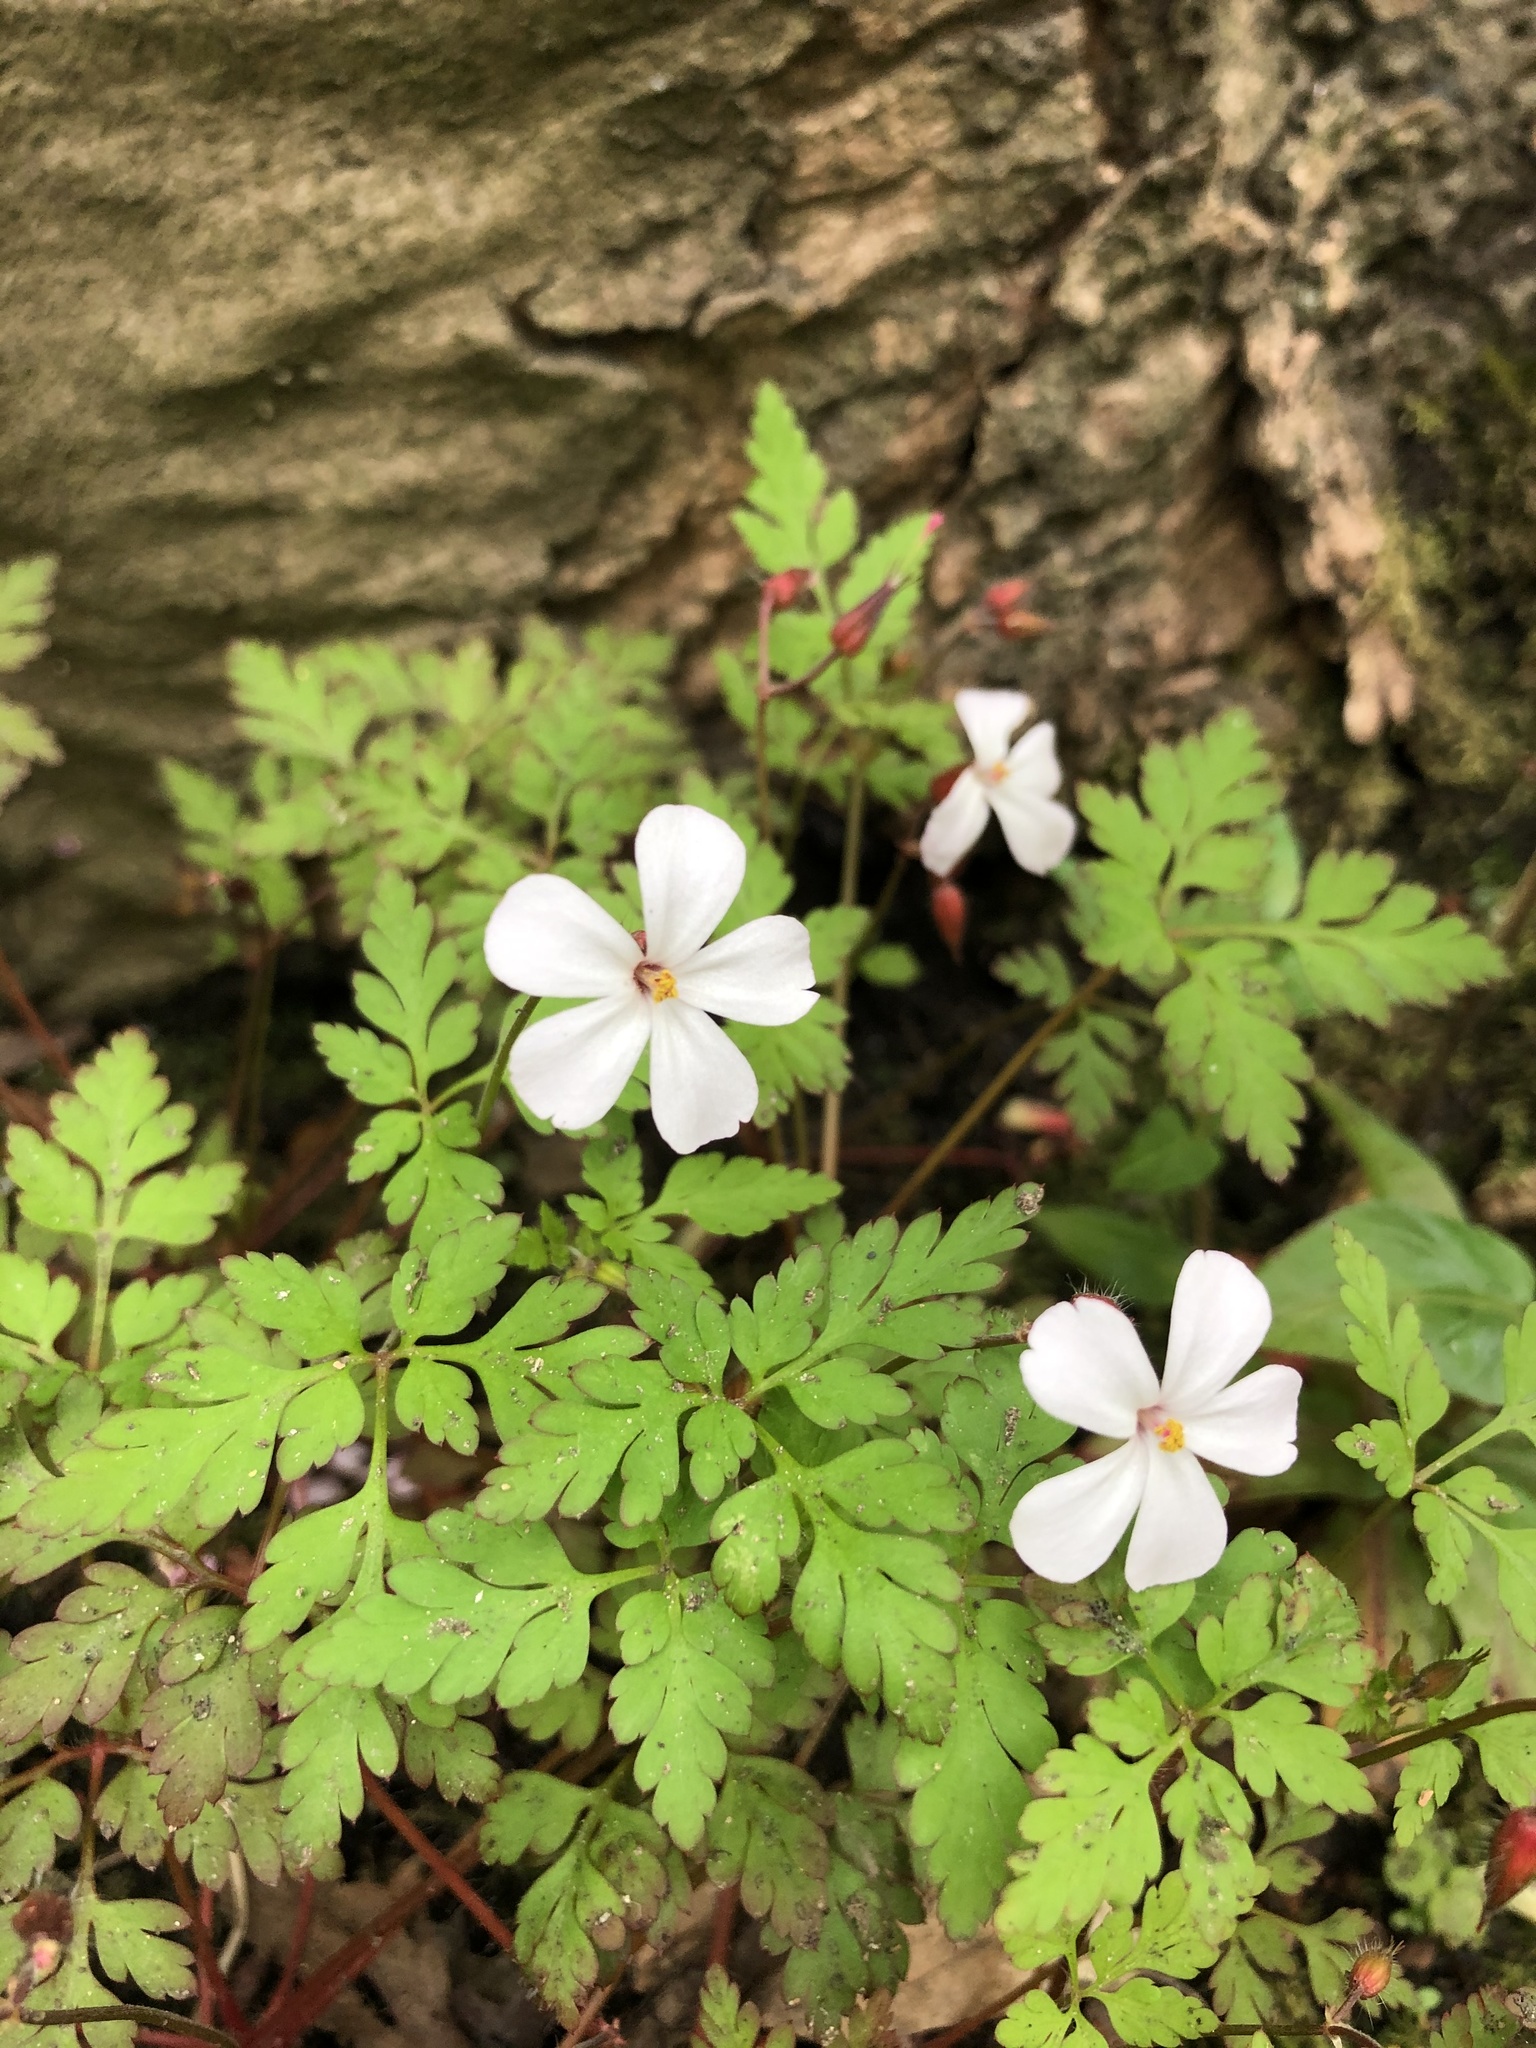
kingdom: Plantae
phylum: Tracheophyta
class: Magnoliopsida
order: Geraniales
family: Geraniaceae
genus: Geranium
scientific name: Geranium robertianum
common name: Herb-robert
